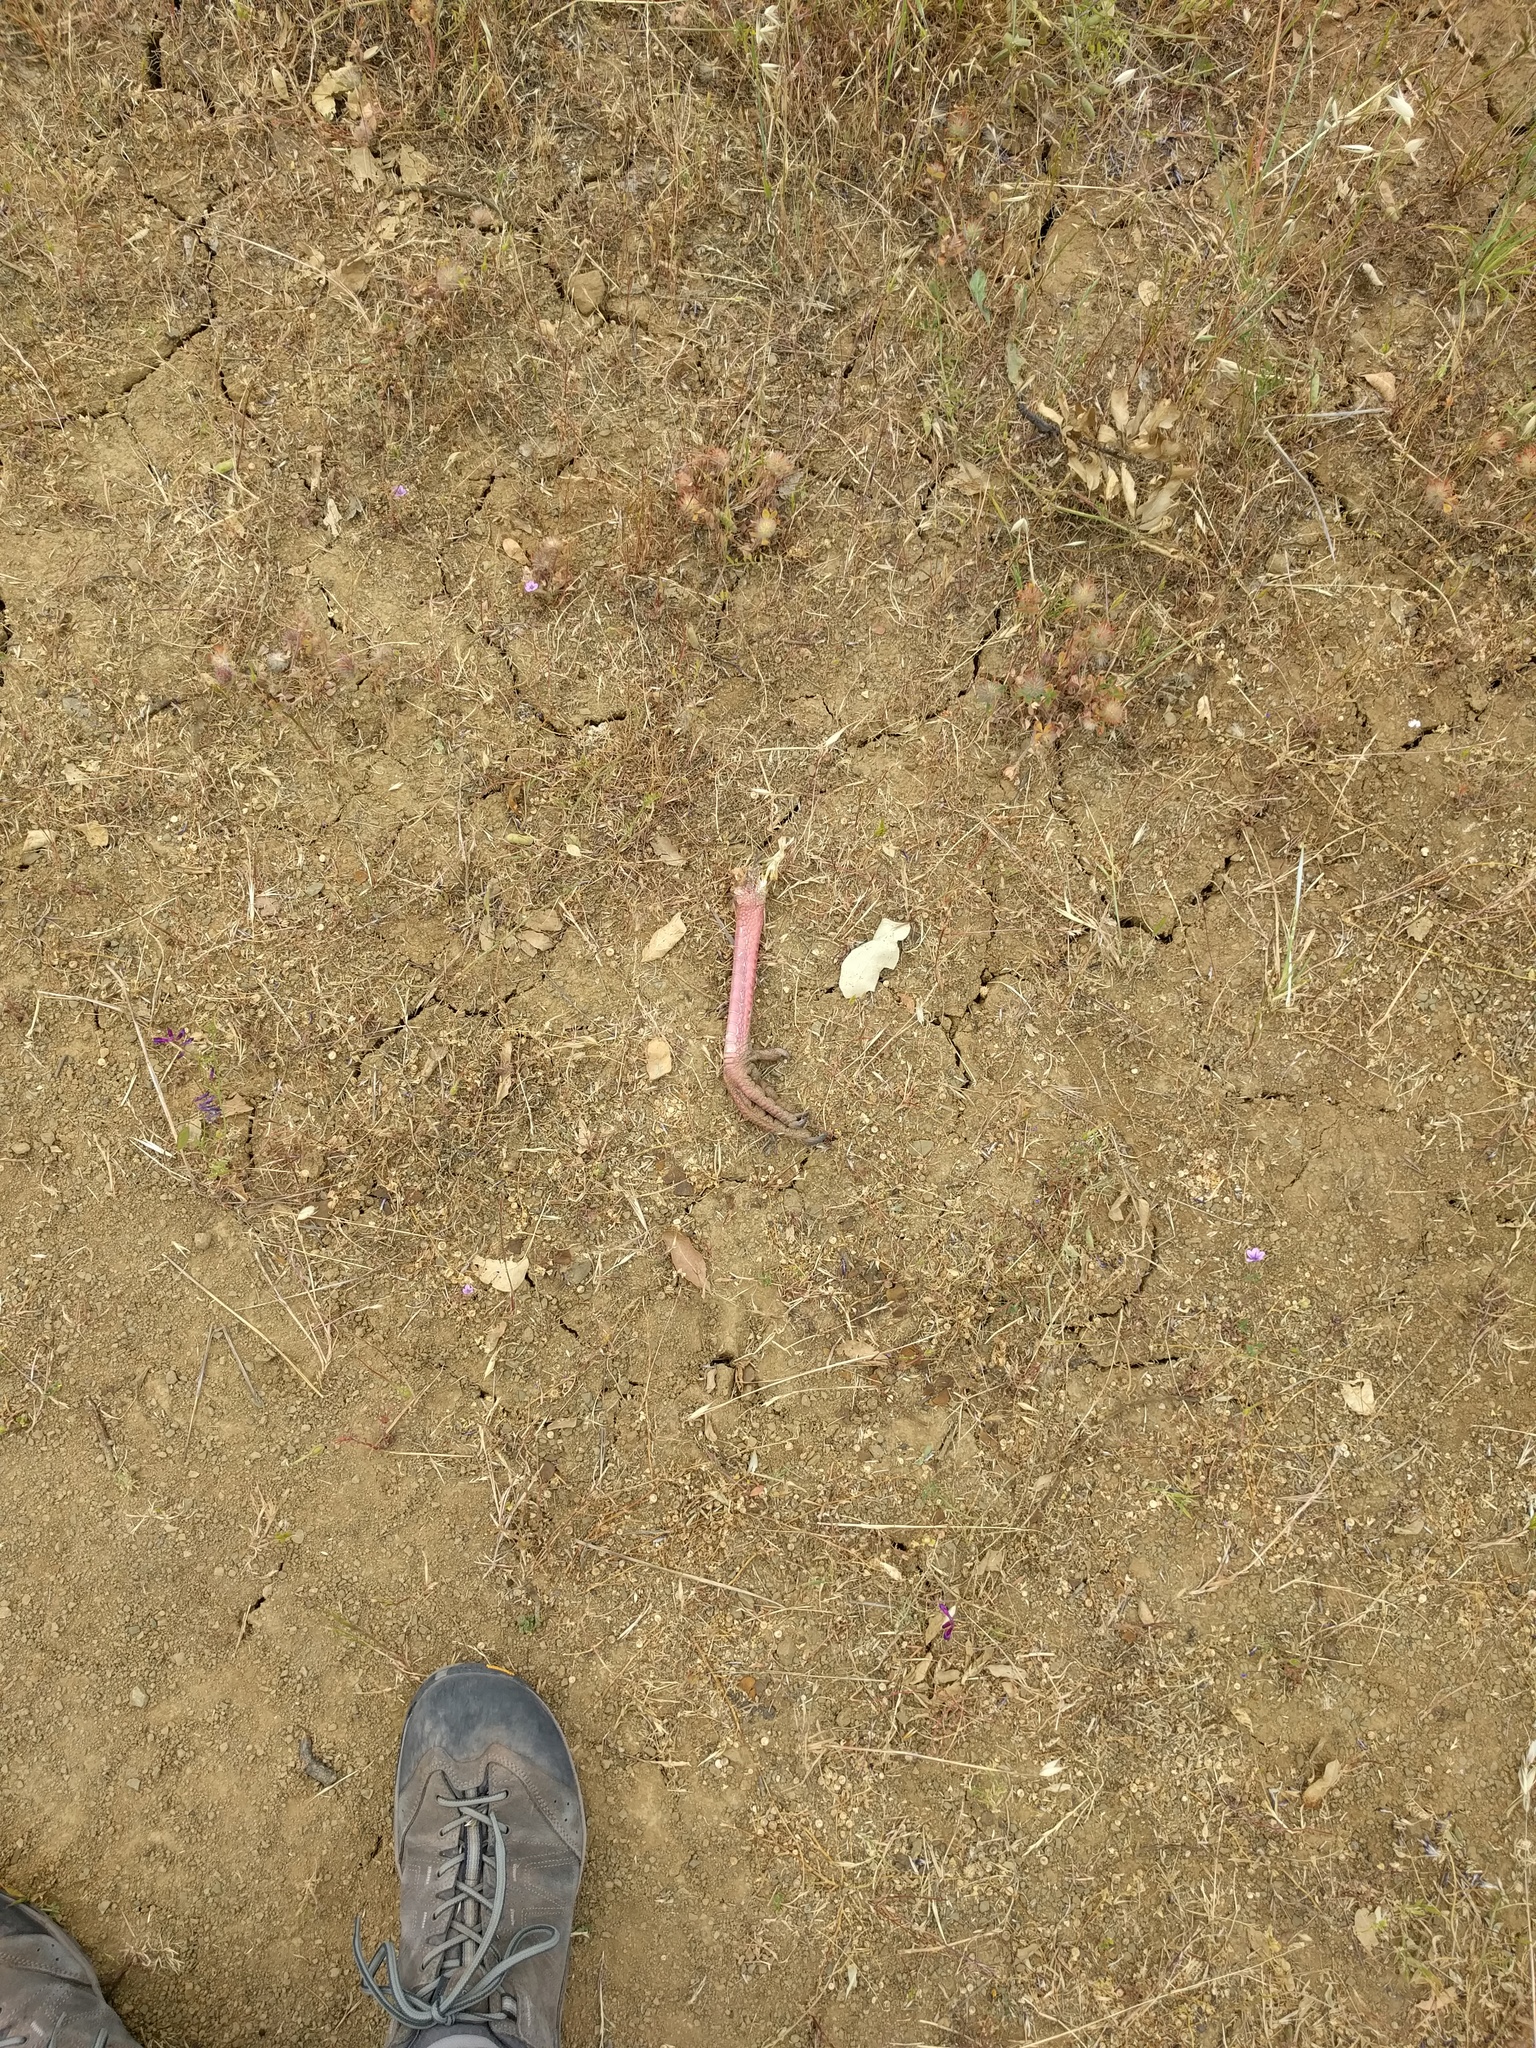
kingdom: Animalia
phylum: Chordata
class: Aves
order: Galliformes
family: Phasianidae
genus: Meleagris
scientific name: Meleagris gallopavo
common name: Wild turkey
